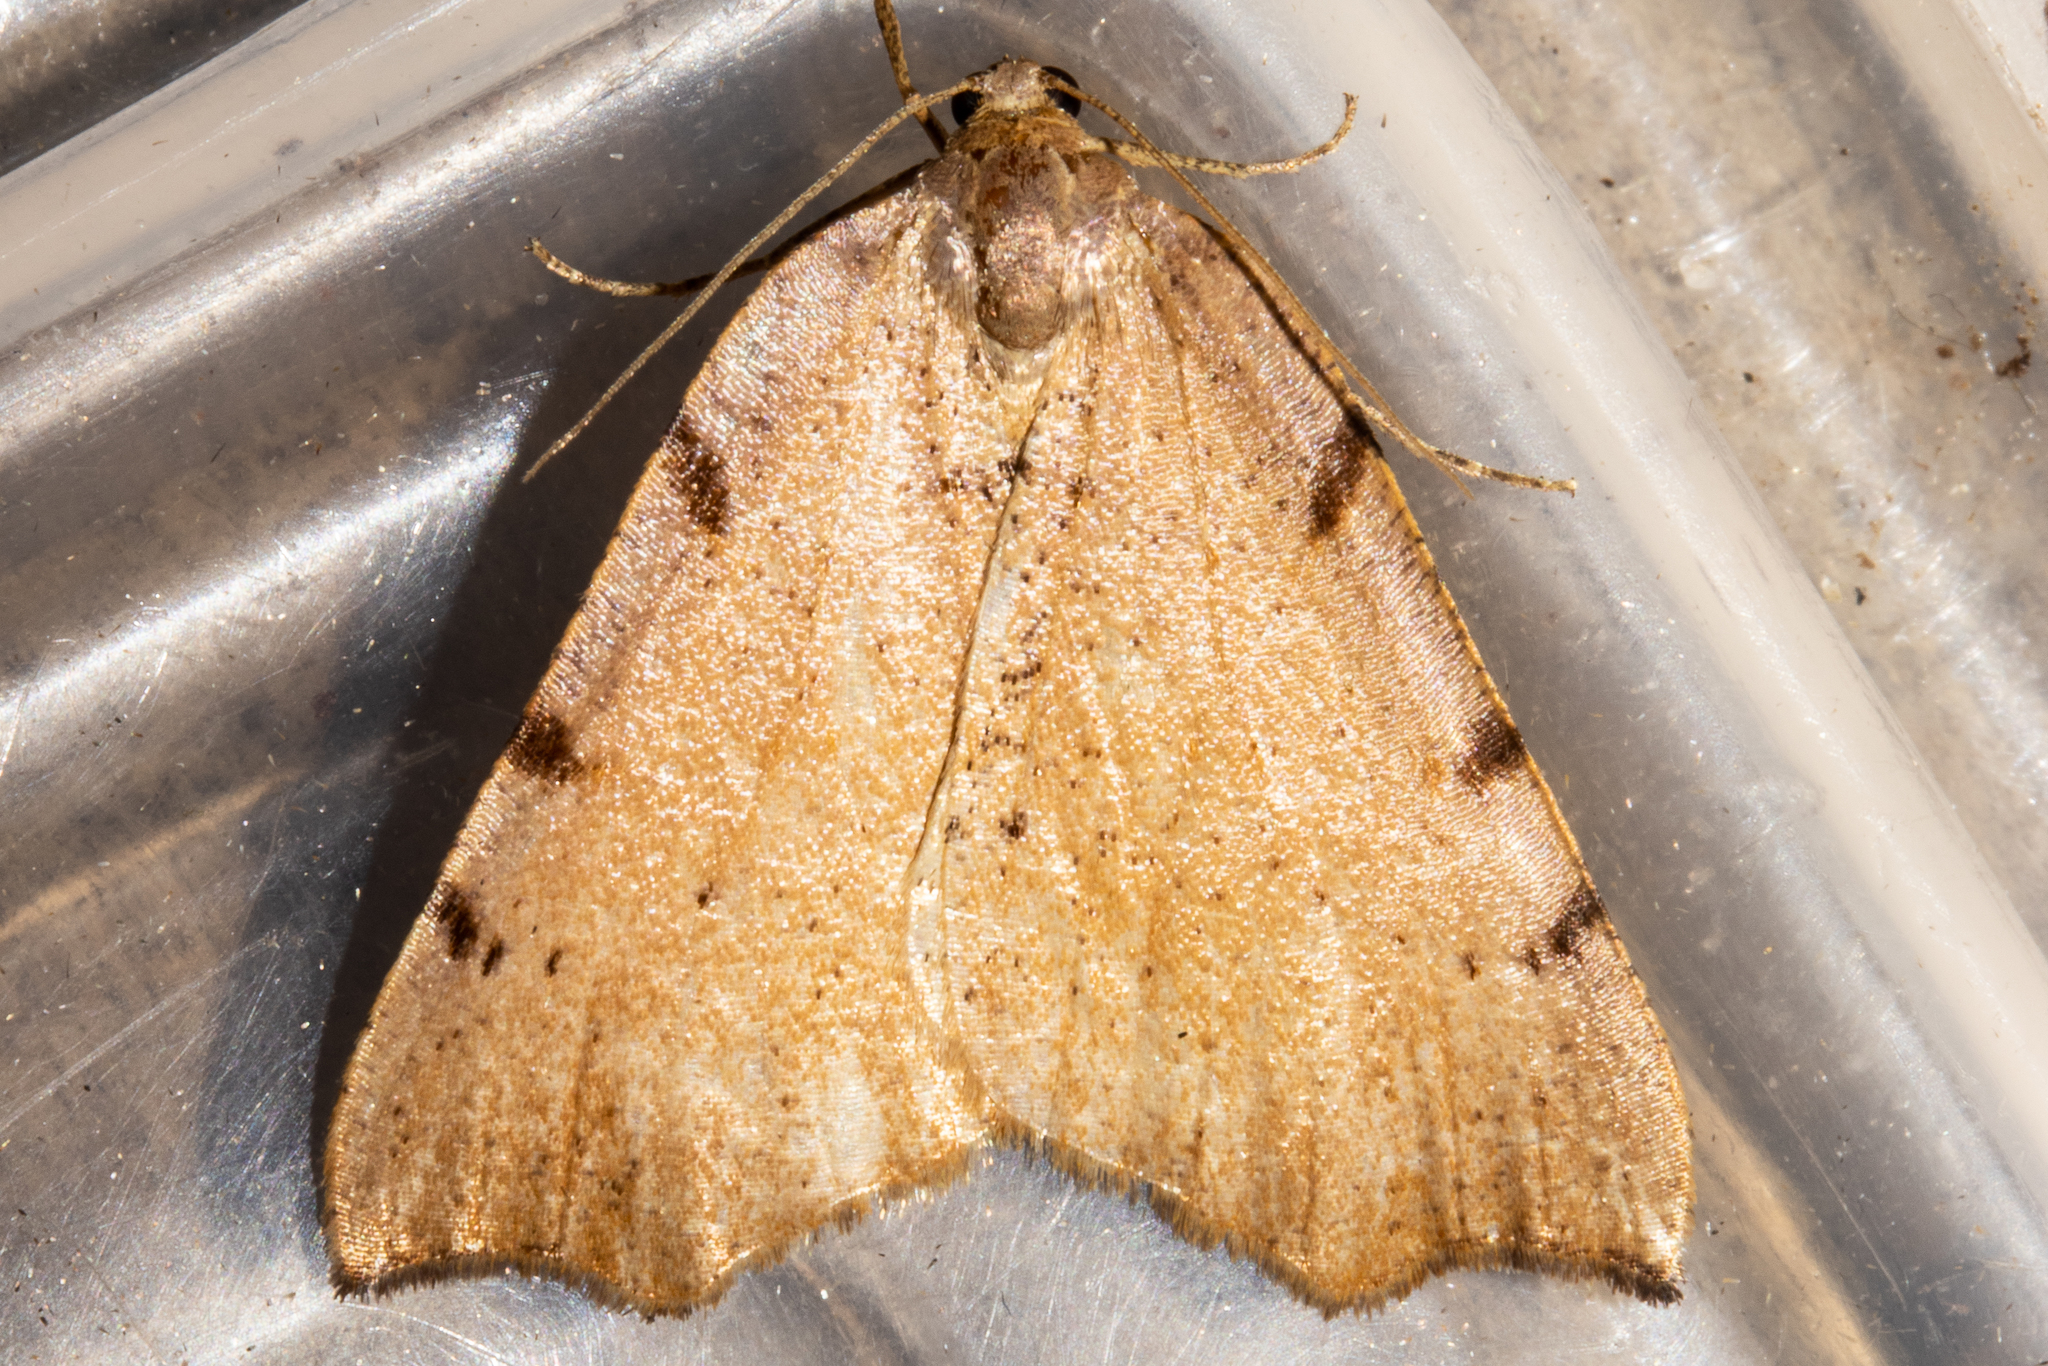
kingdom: Animalia
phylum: Arthropoda
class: Insecta
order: Lepidoptera
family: Geometridae
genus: Sestra
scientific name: Sestra flexata
